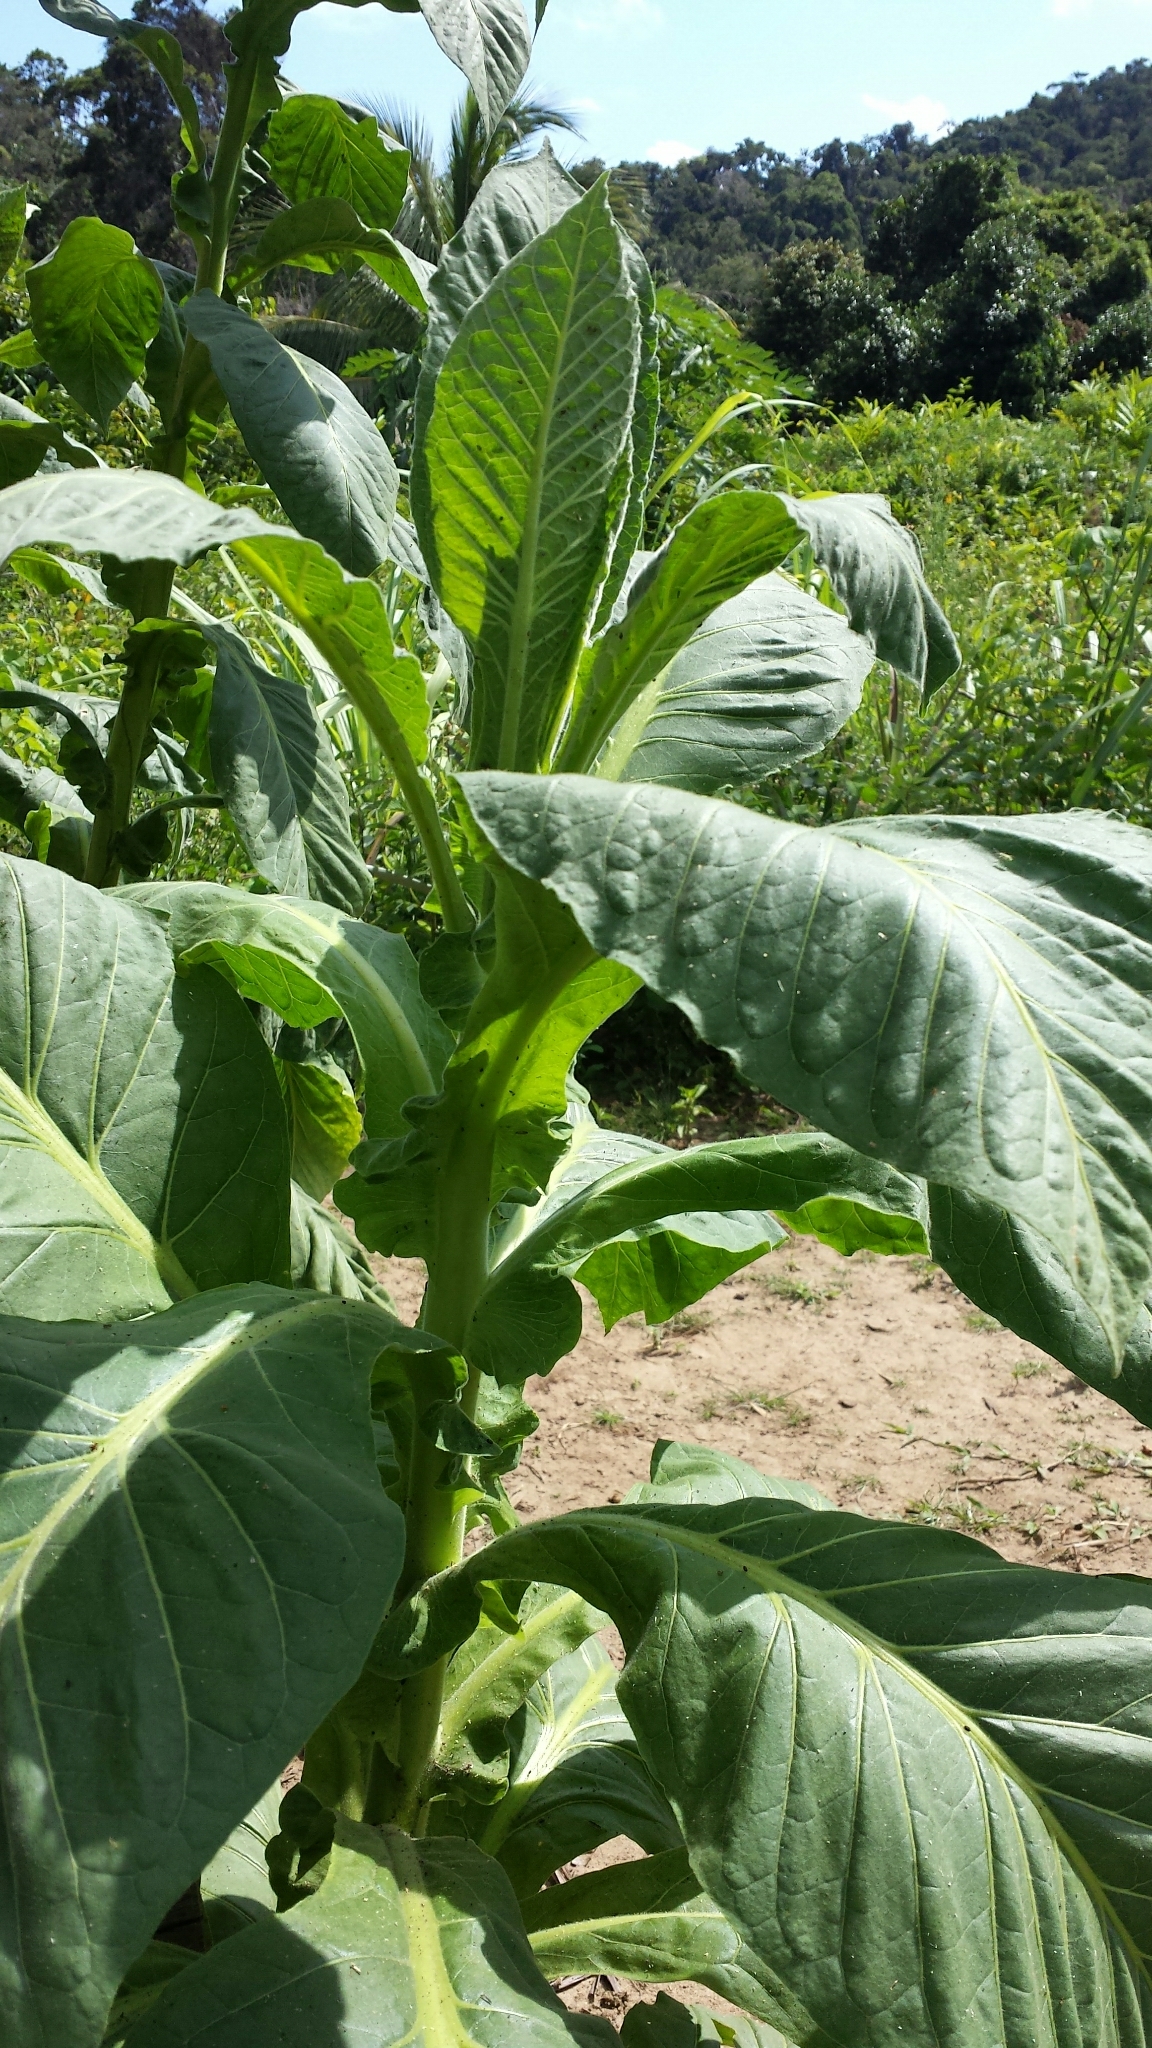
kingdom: Plantae
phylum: Tracheophyta
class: Magnoliopsida
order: Solanales
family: Solanaceae
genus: Nicotiana
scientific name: Nicotiana tabacum
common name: Tobacco
